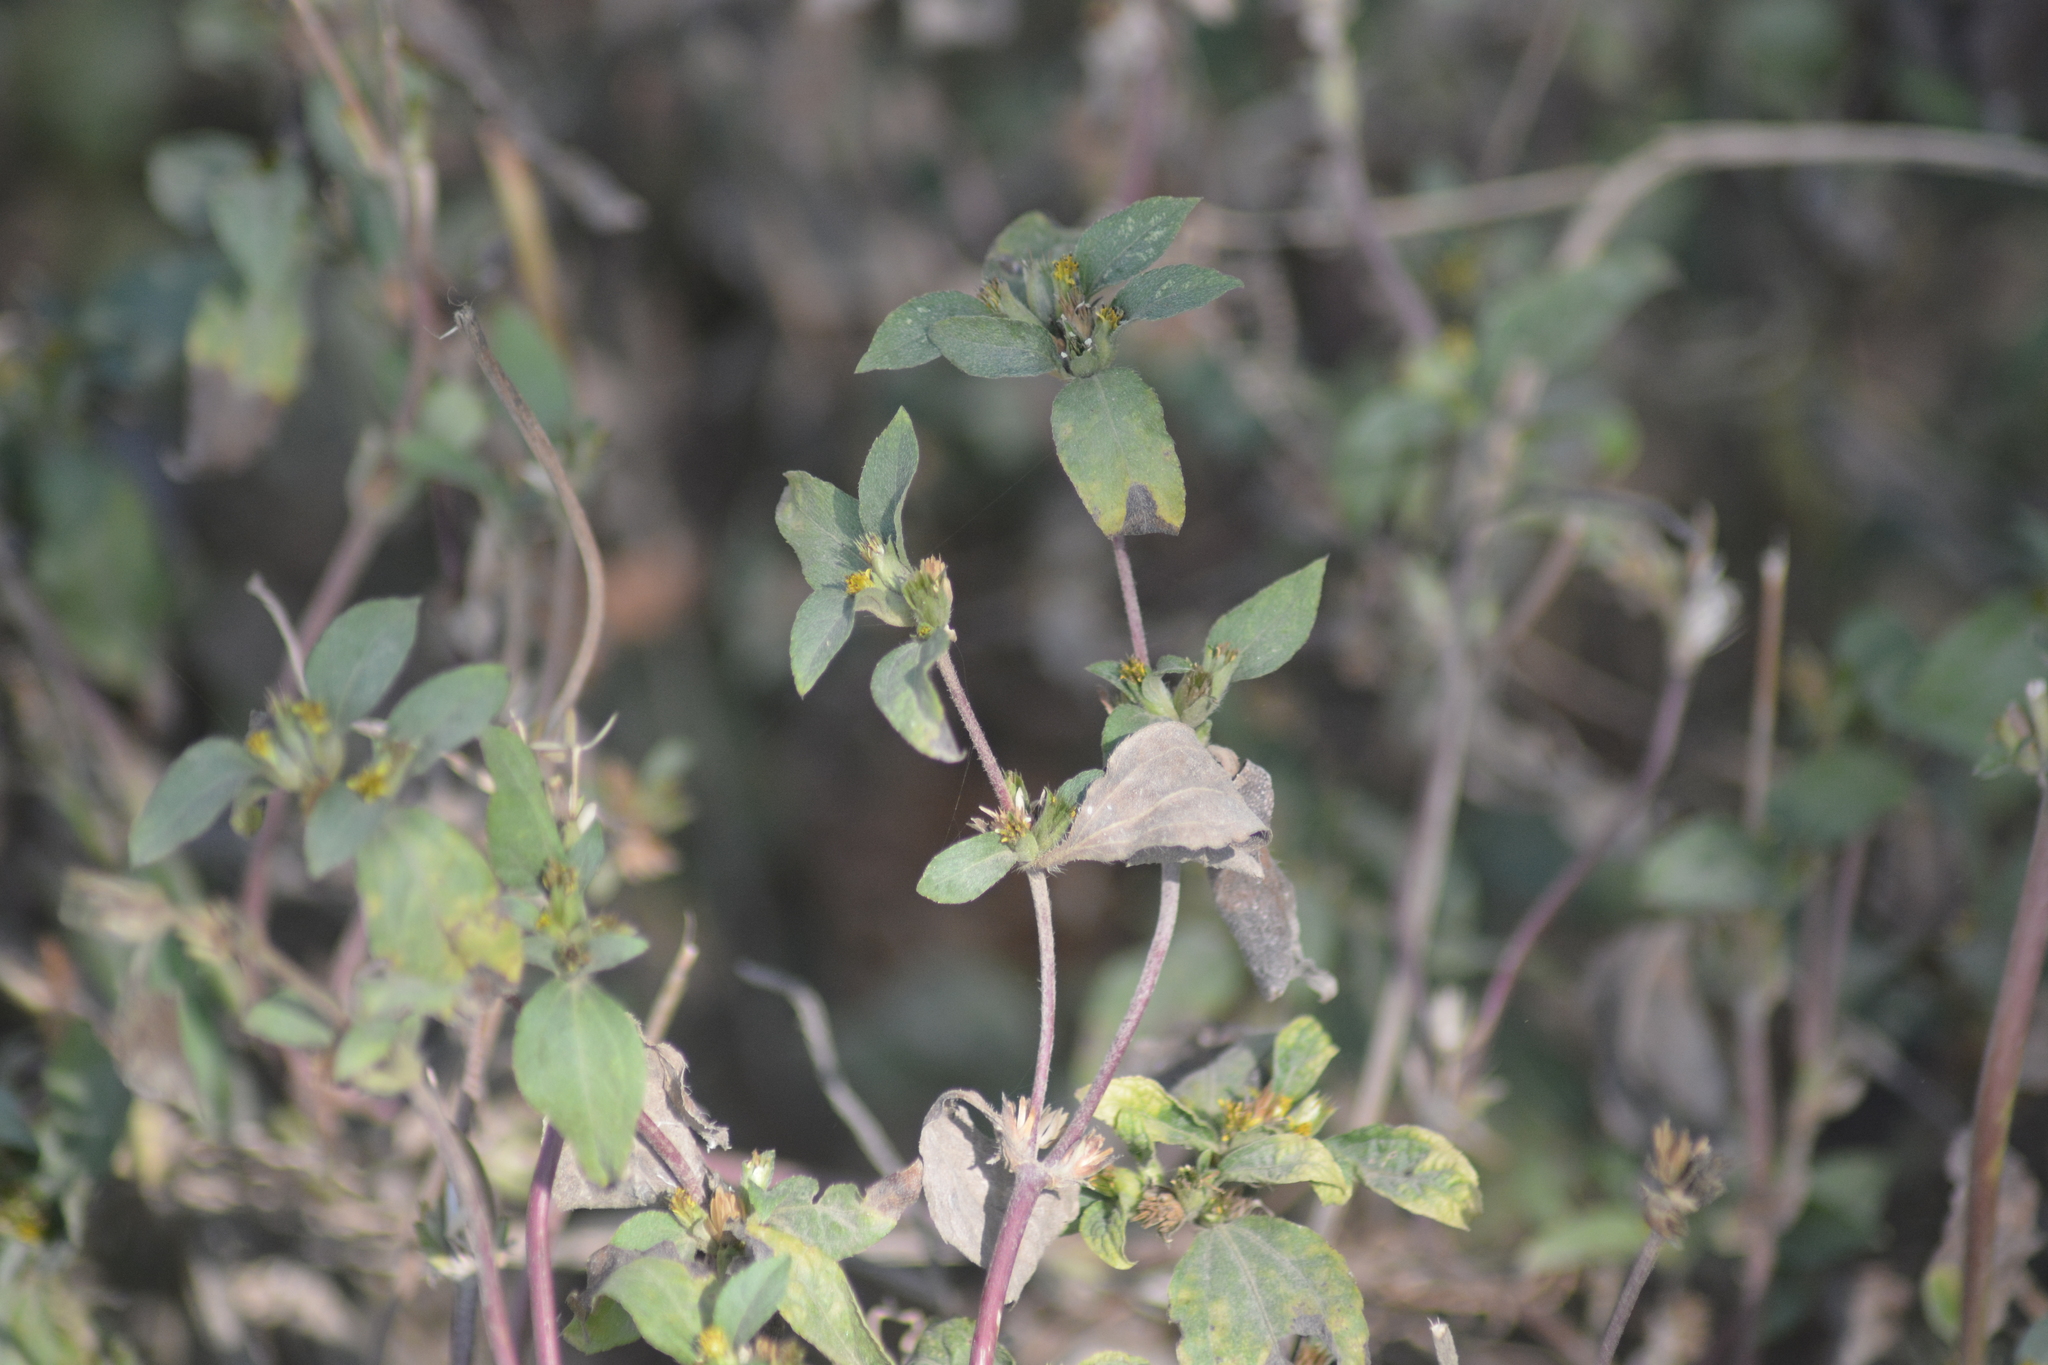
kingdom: Plantae
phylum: Tracheophyta
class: Magnoliopsida
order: Asterales
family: Asteraceae
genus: Synedrella
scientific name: Synedrella nodiflora
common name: Nodeweed
